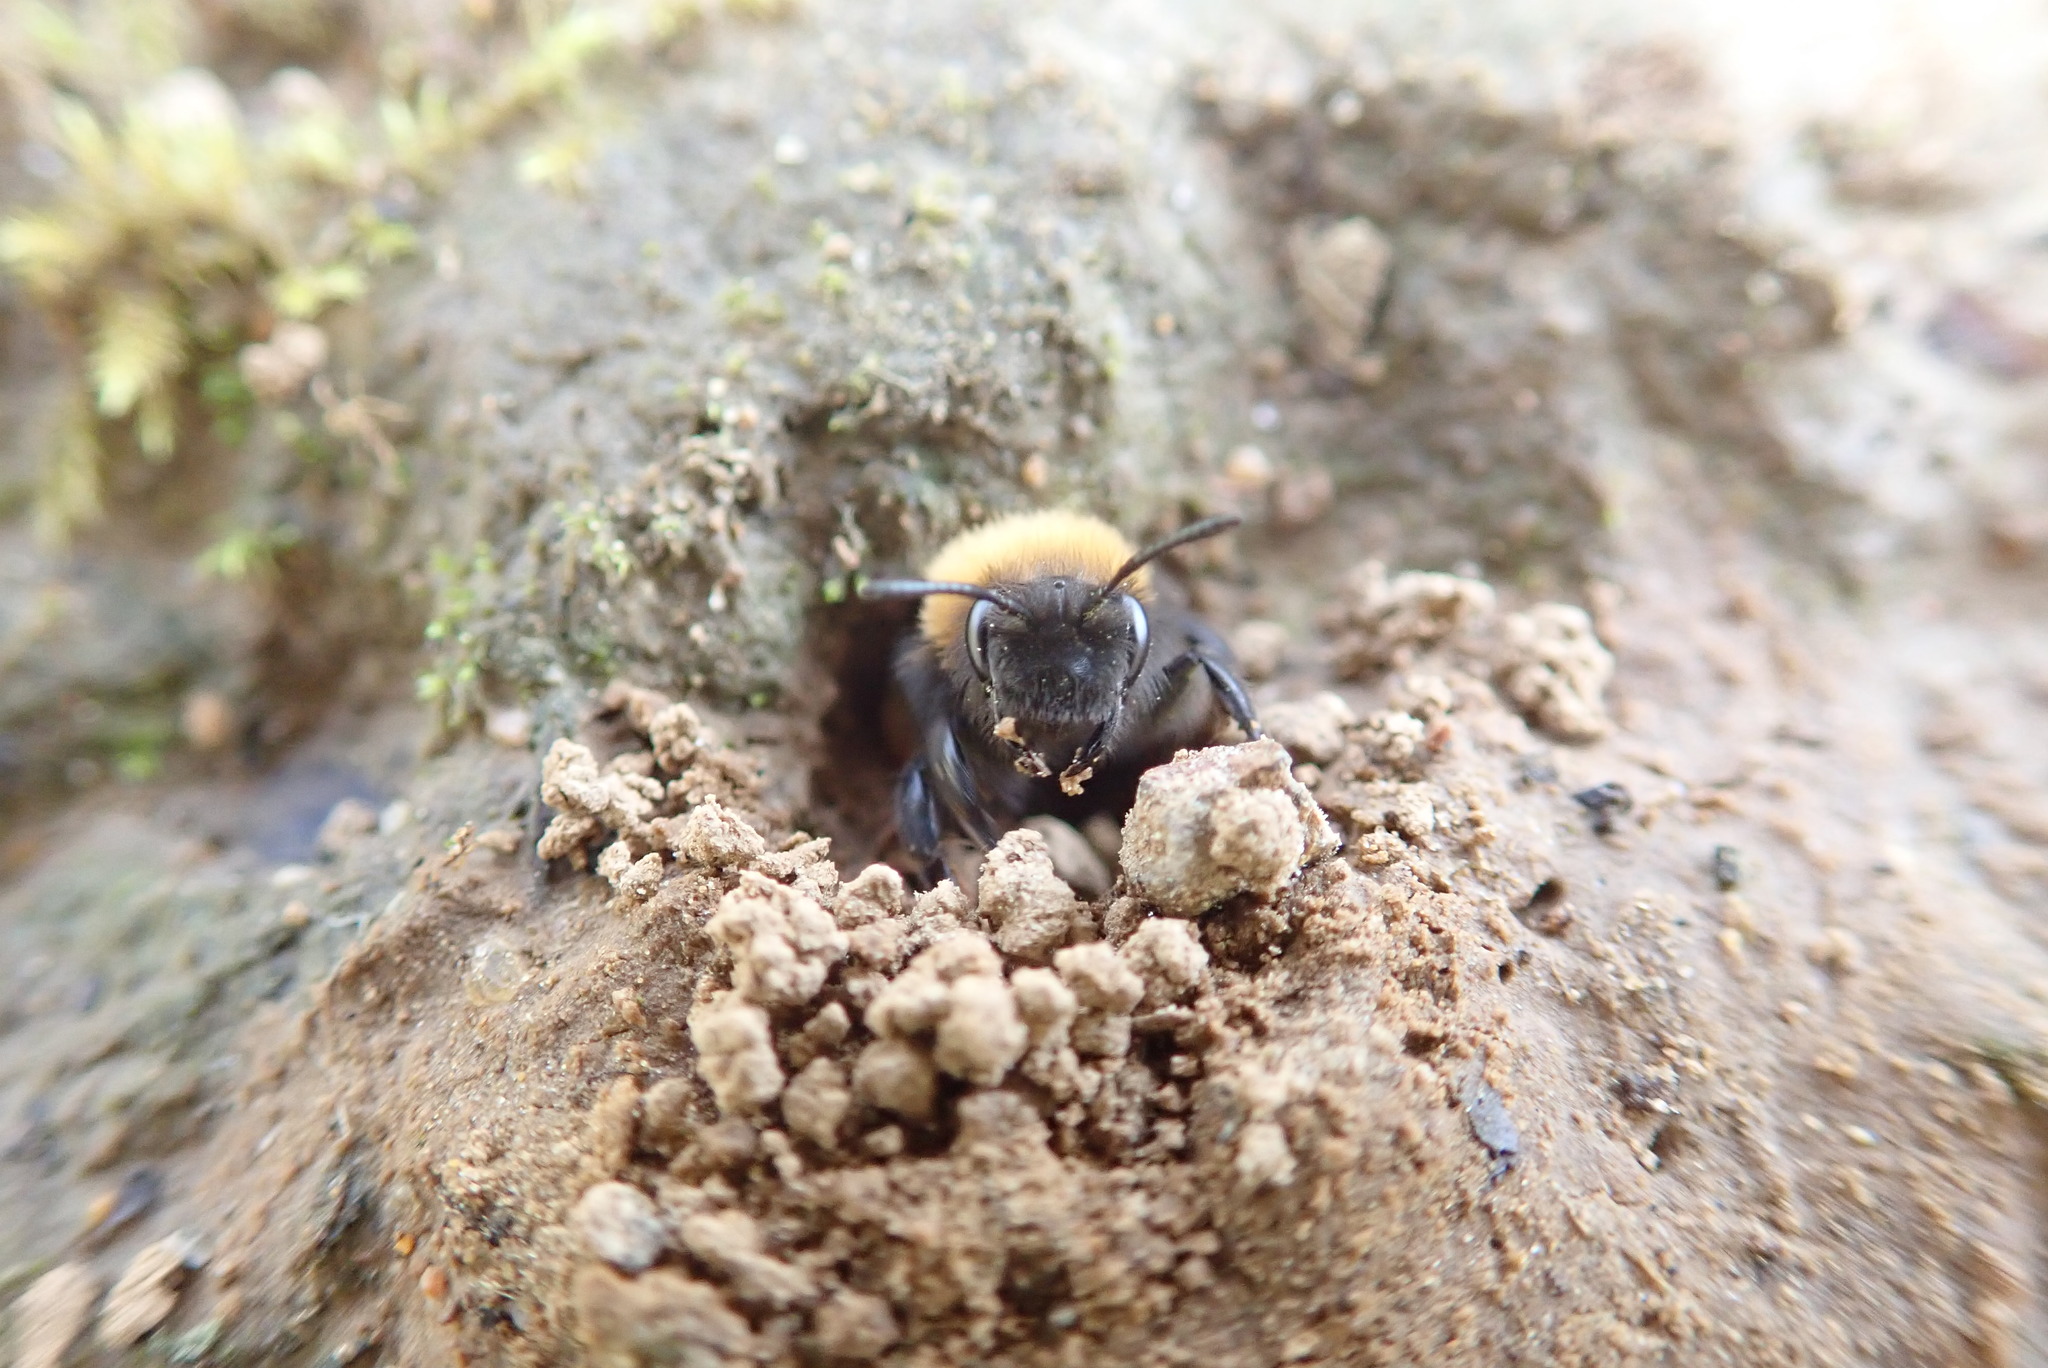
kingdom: Animalia
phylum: Arthropoda
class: Insecta
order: Hymenoptera
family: Andrenidae
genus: Andrena
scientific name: Andrena clarkella
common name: Clarke's mining bee
